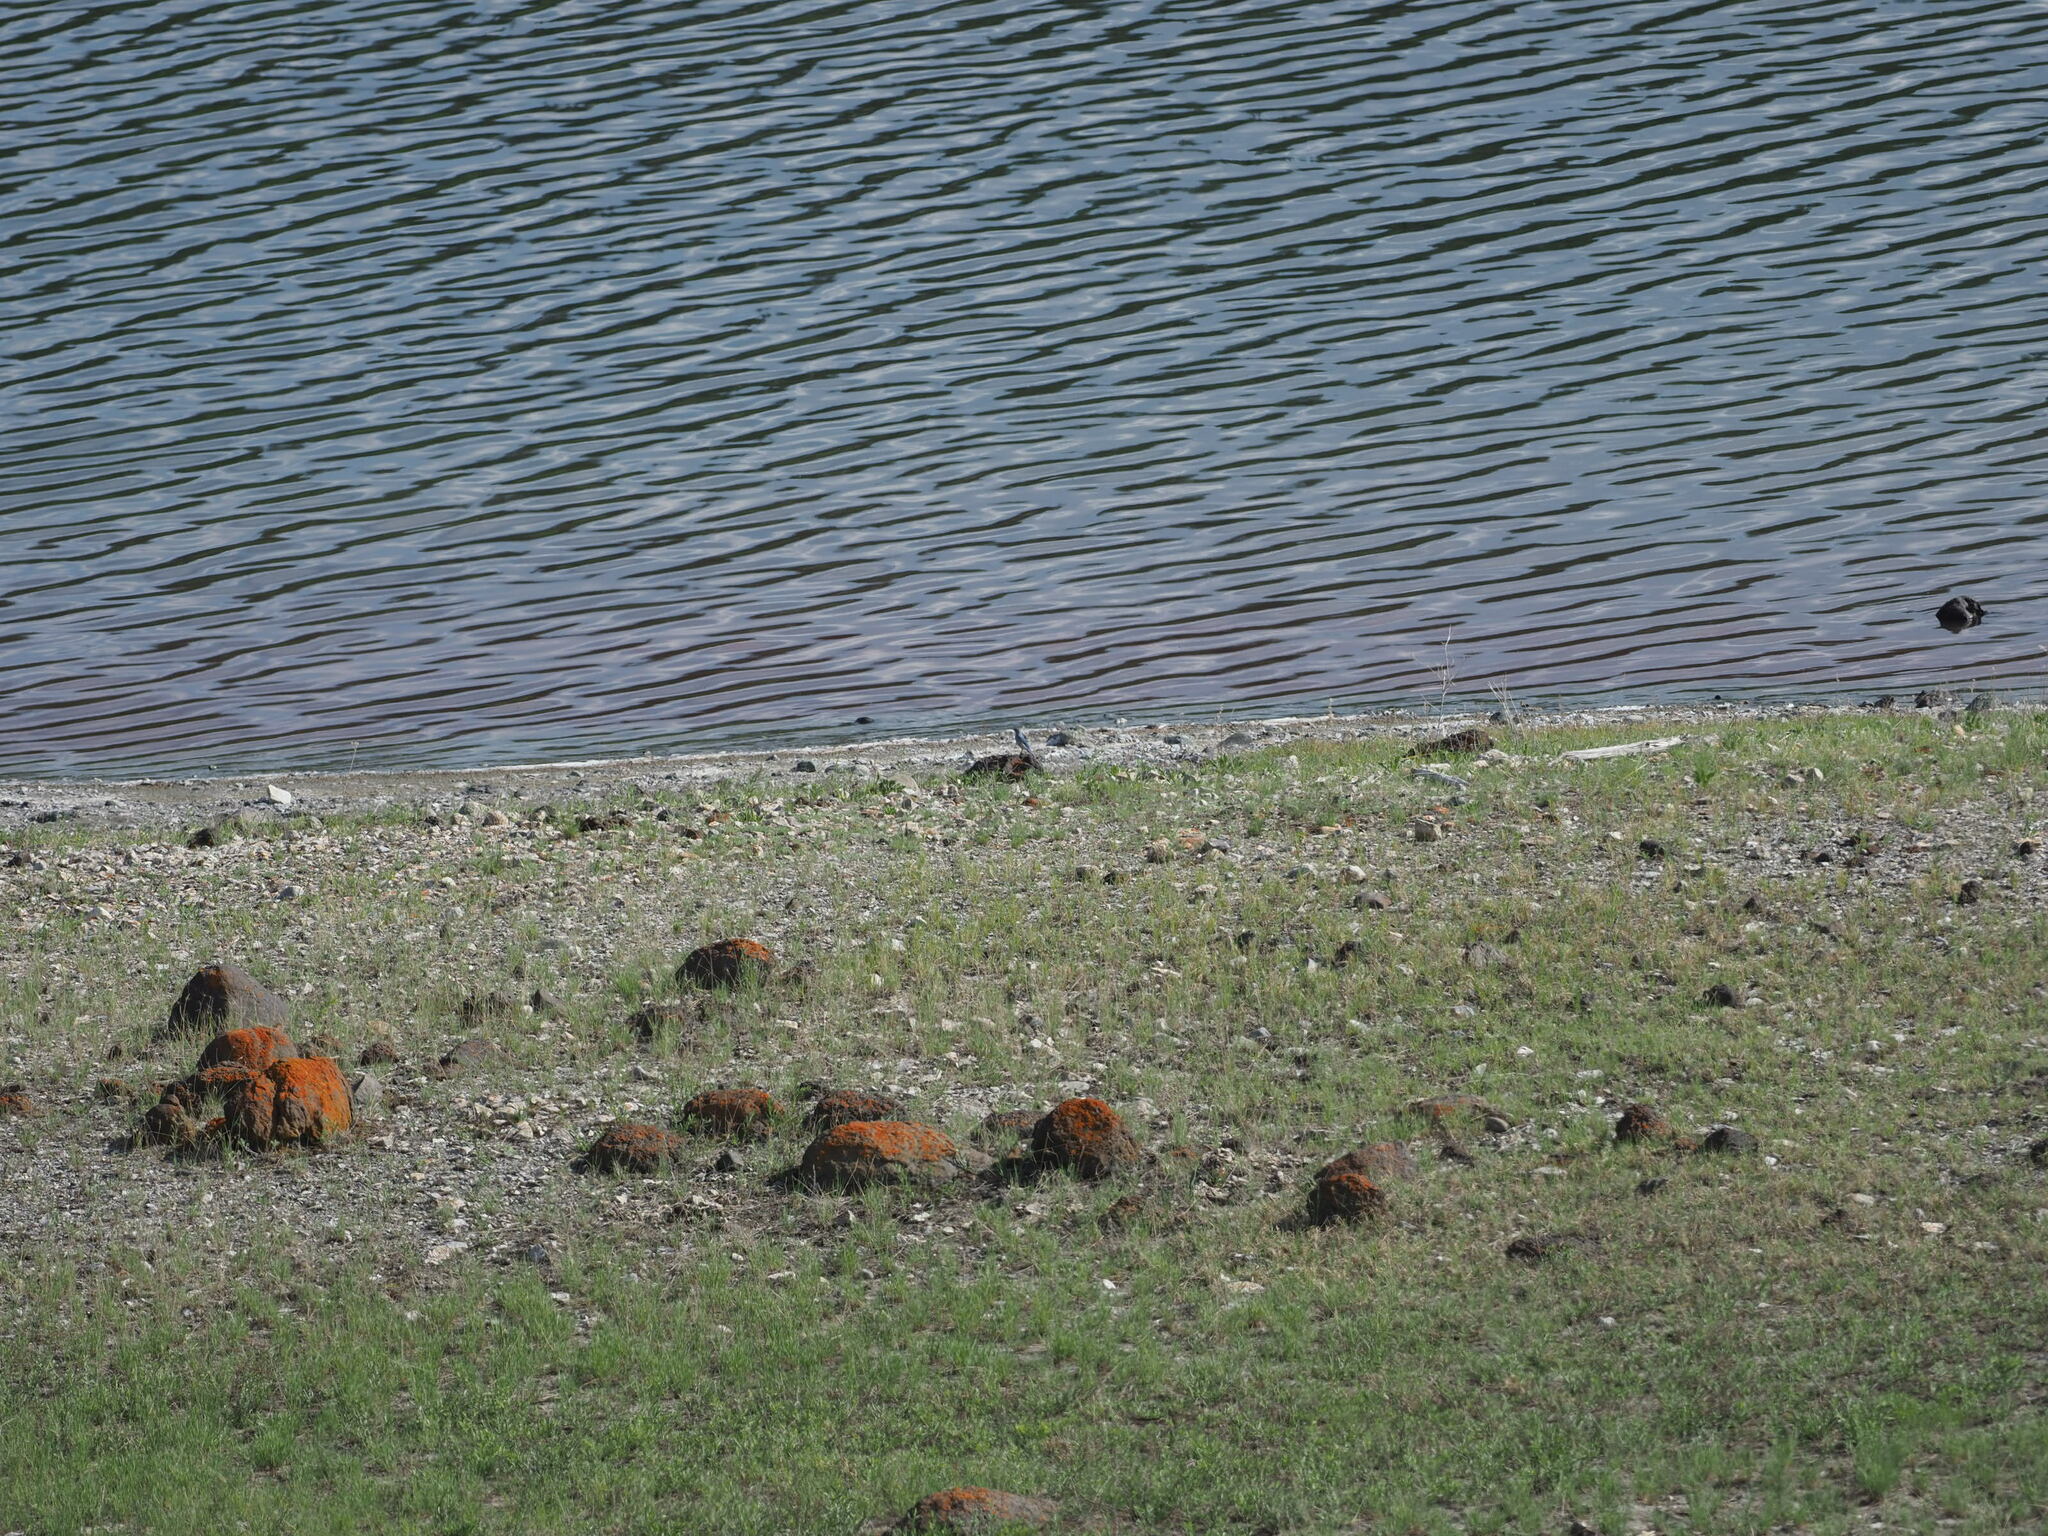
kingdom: Animalia
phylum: Chordata
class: Aves
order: Passeriformes
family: Turdidae
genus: Sialia
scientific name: Sialia currucoides
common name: Mountain bluebird
